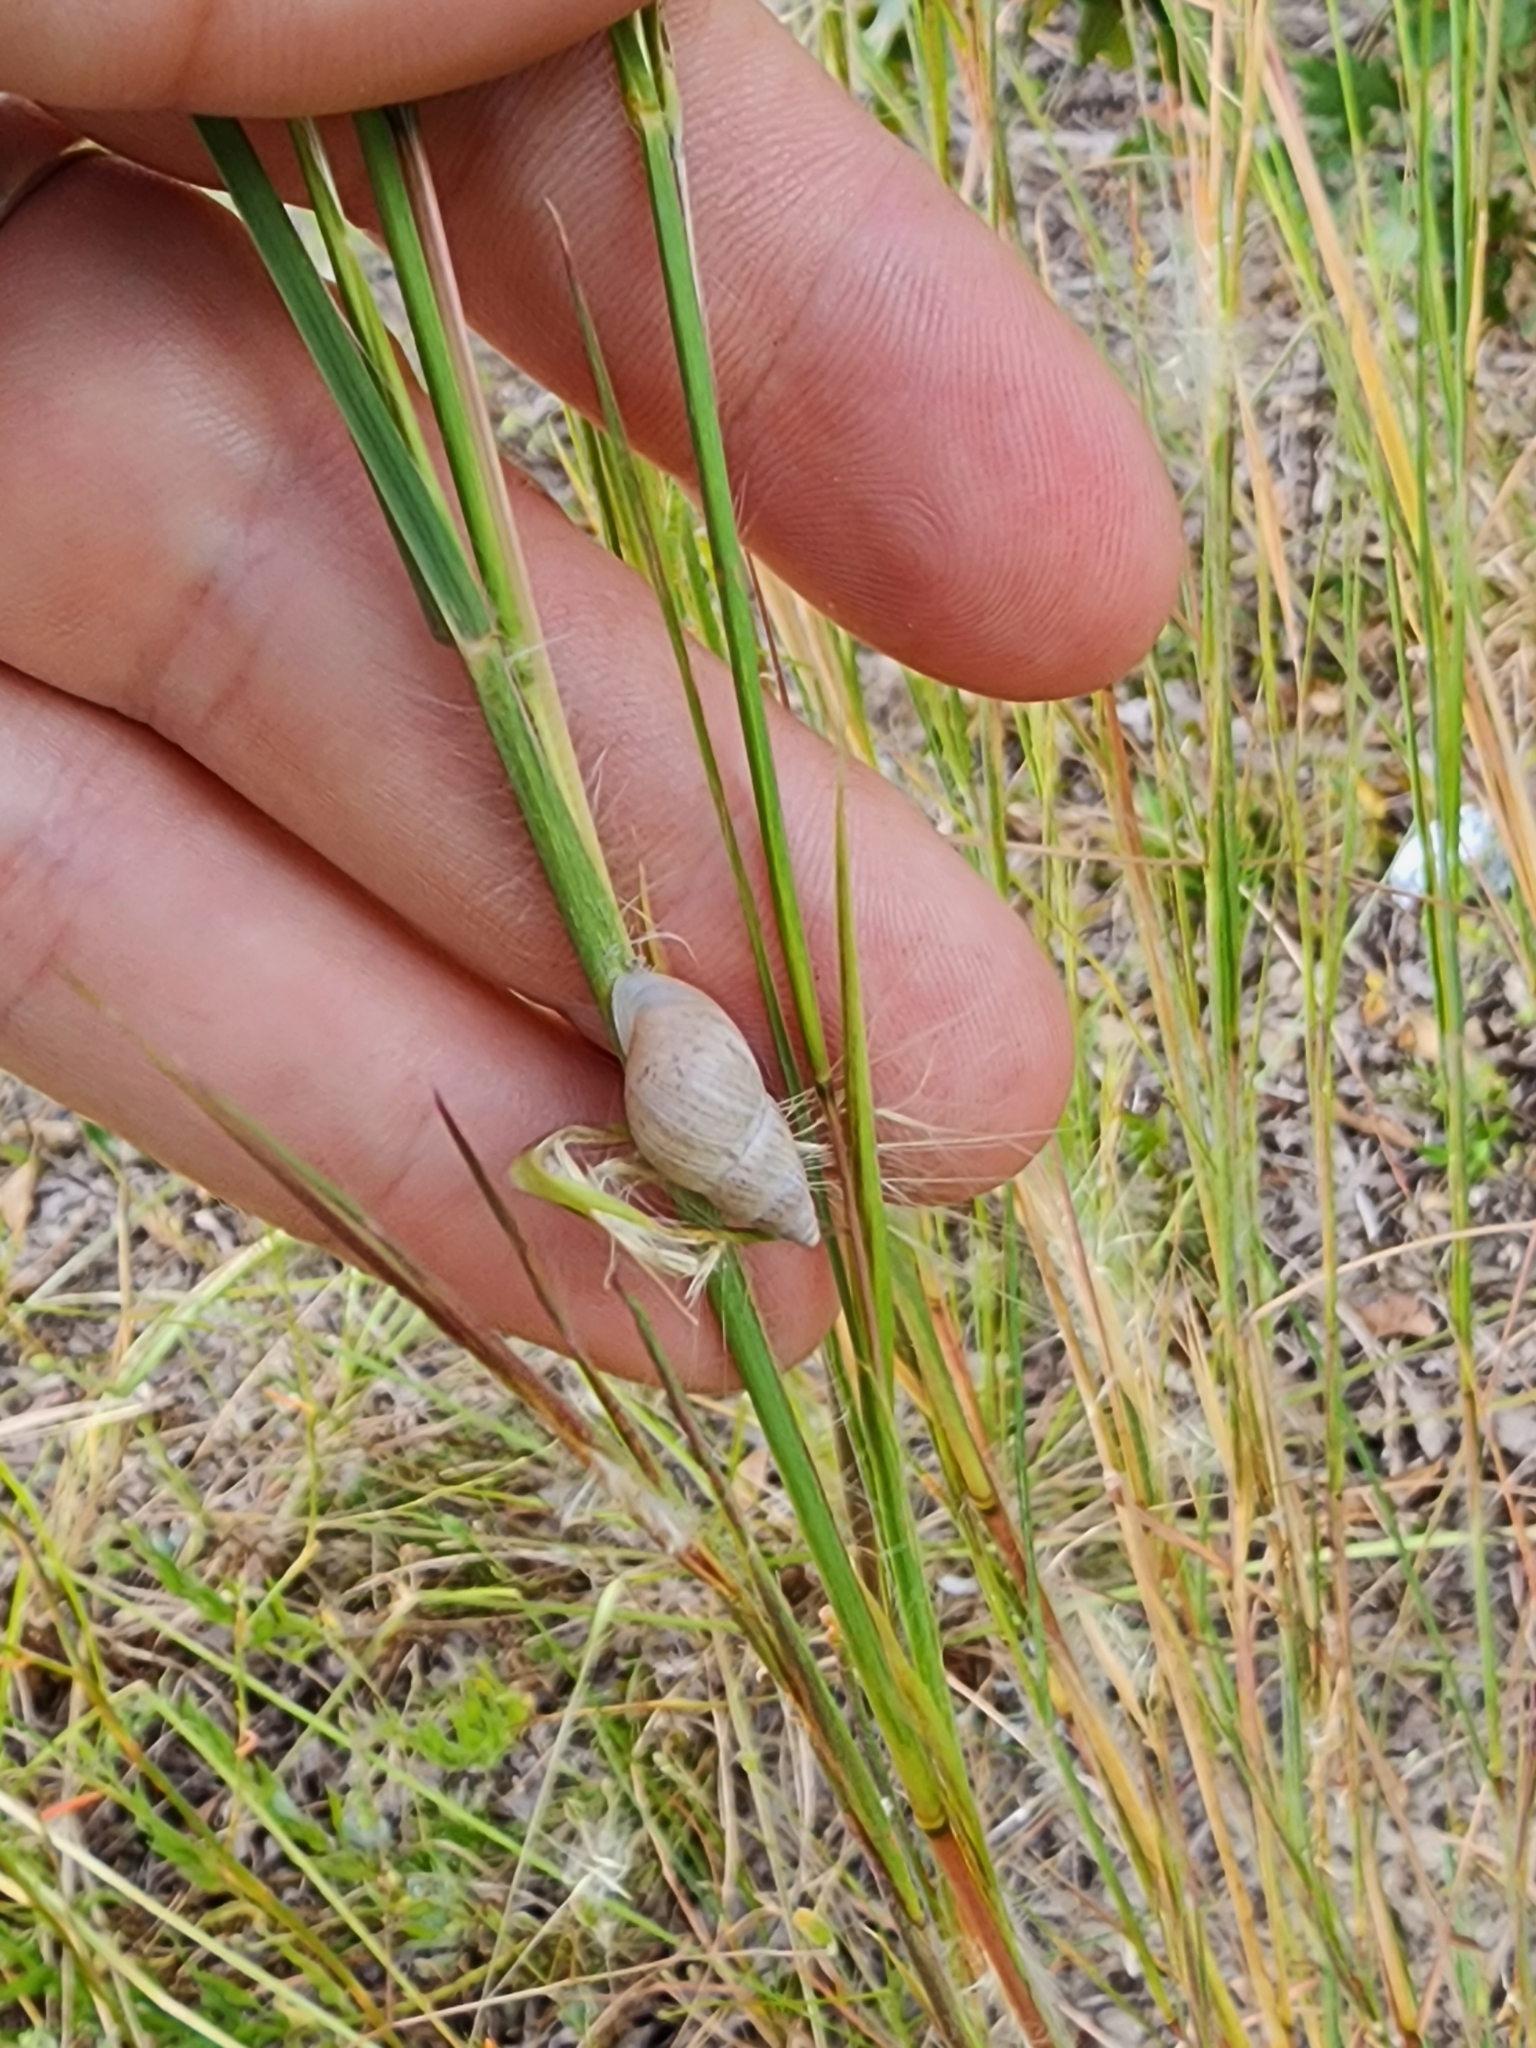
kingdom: Animalia
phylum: Mollusca
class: Gastropoda
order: Stylommatophora
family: Bulimulidae
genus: Bulimulus
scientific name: Bulimulus bonariensis
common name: Snail
